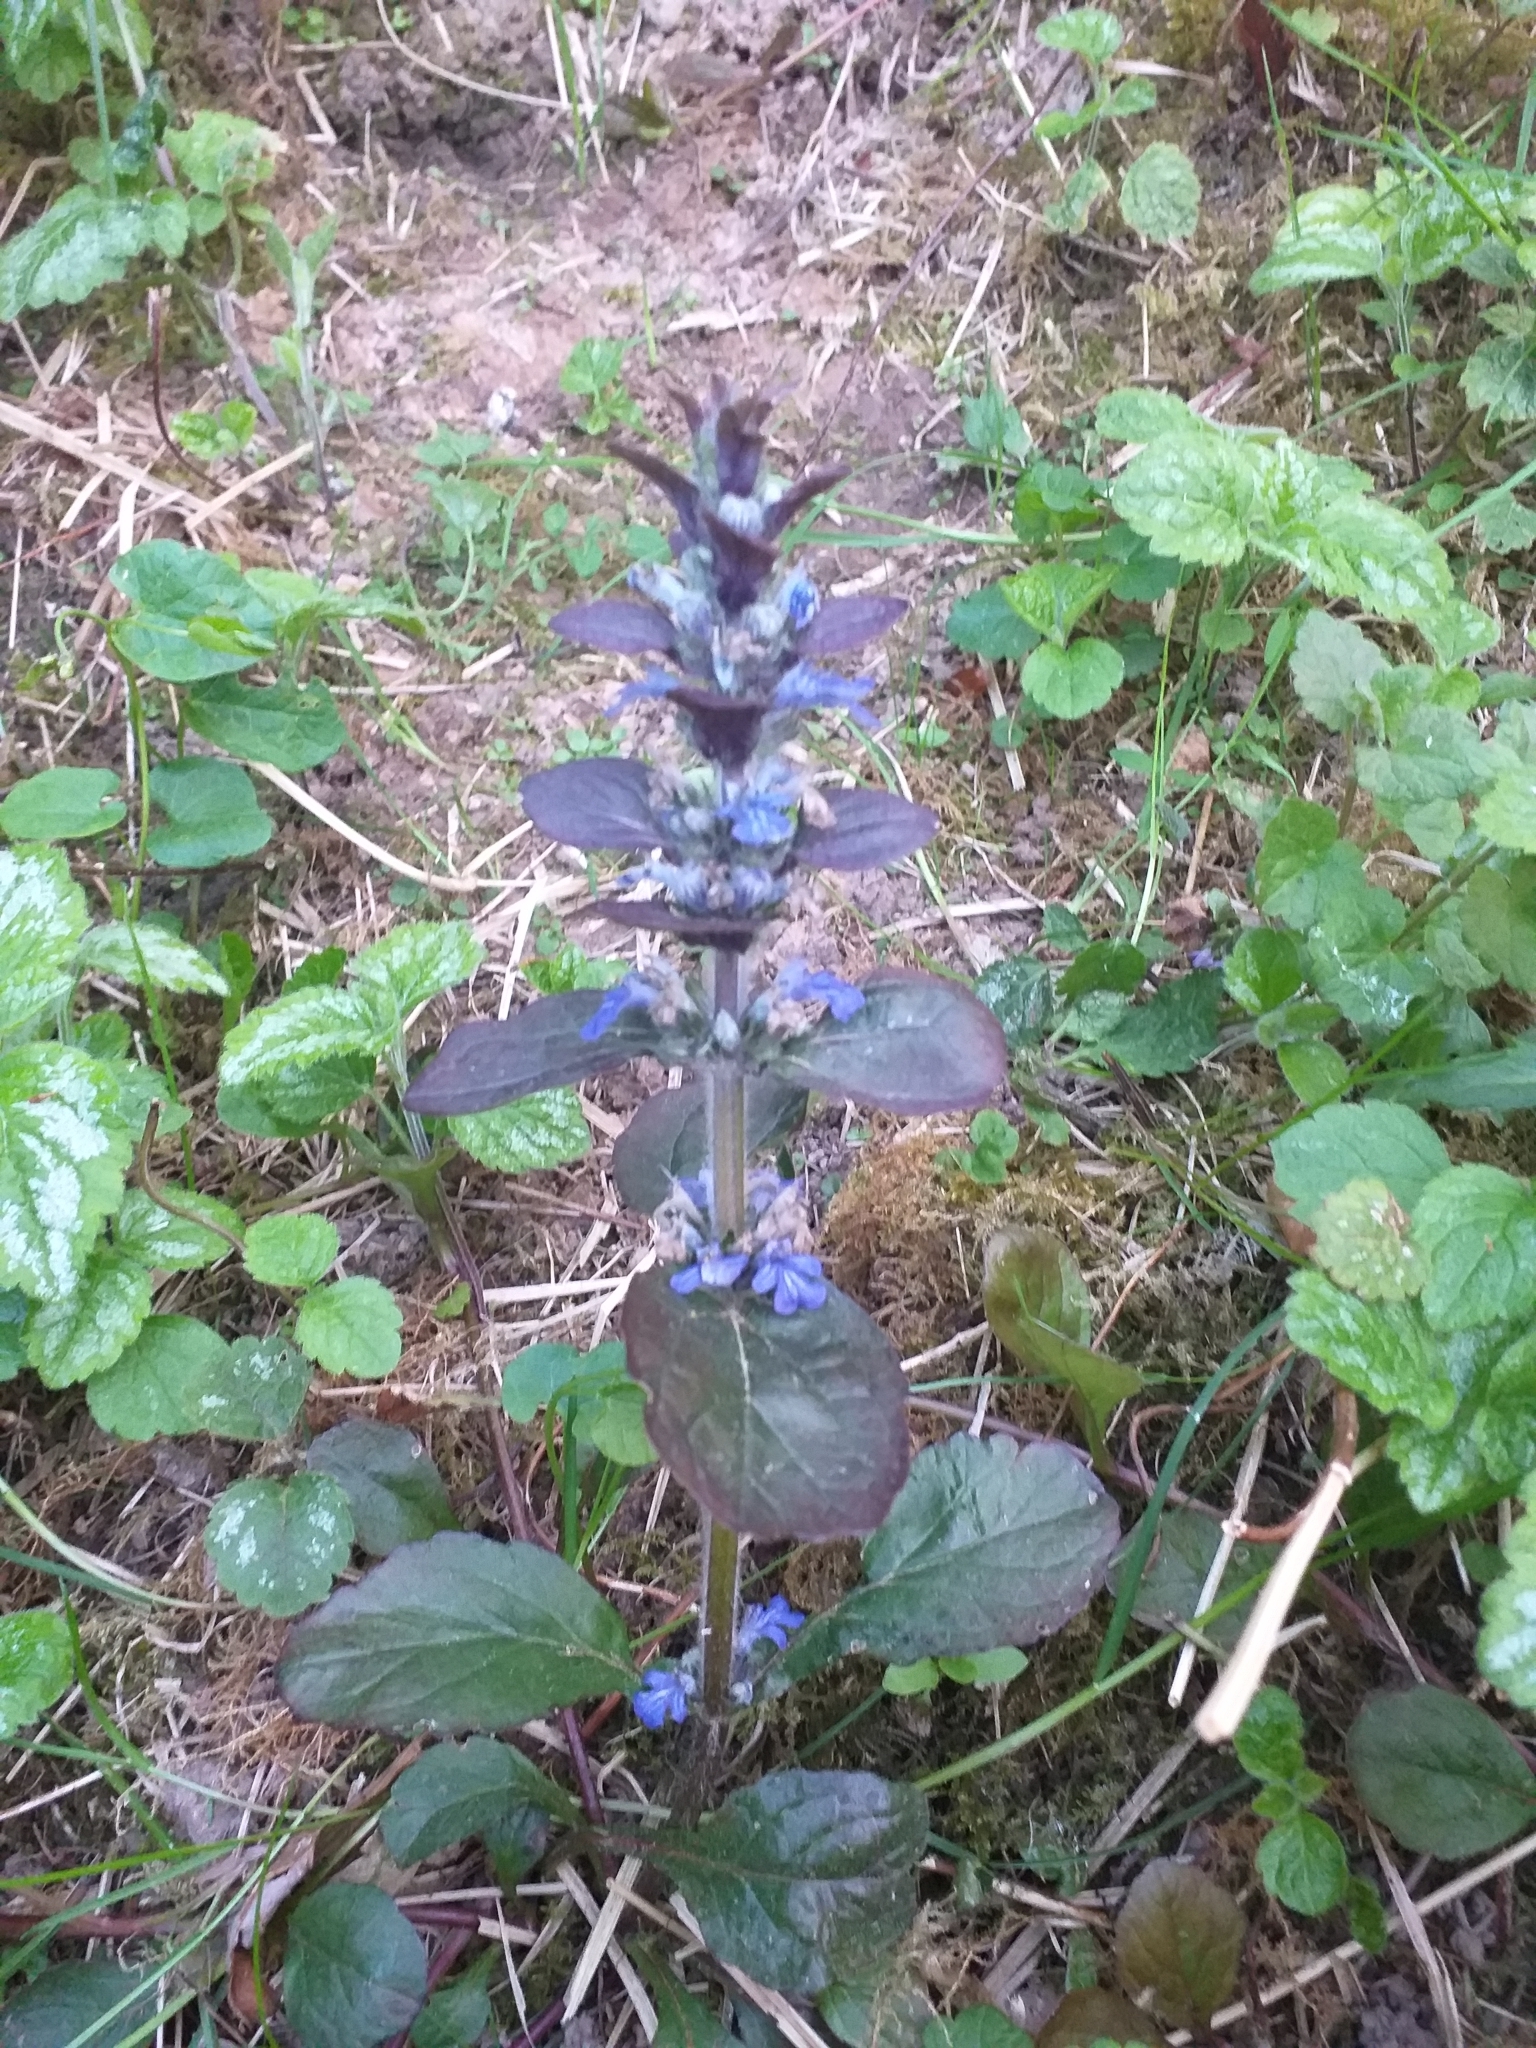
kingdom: Plantae
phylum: Tracheophyta
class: Magnoliopsida
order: Lamiales
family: Lamiaceae
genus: Ajuga
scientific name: Ajuga reptans
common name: Bugle
